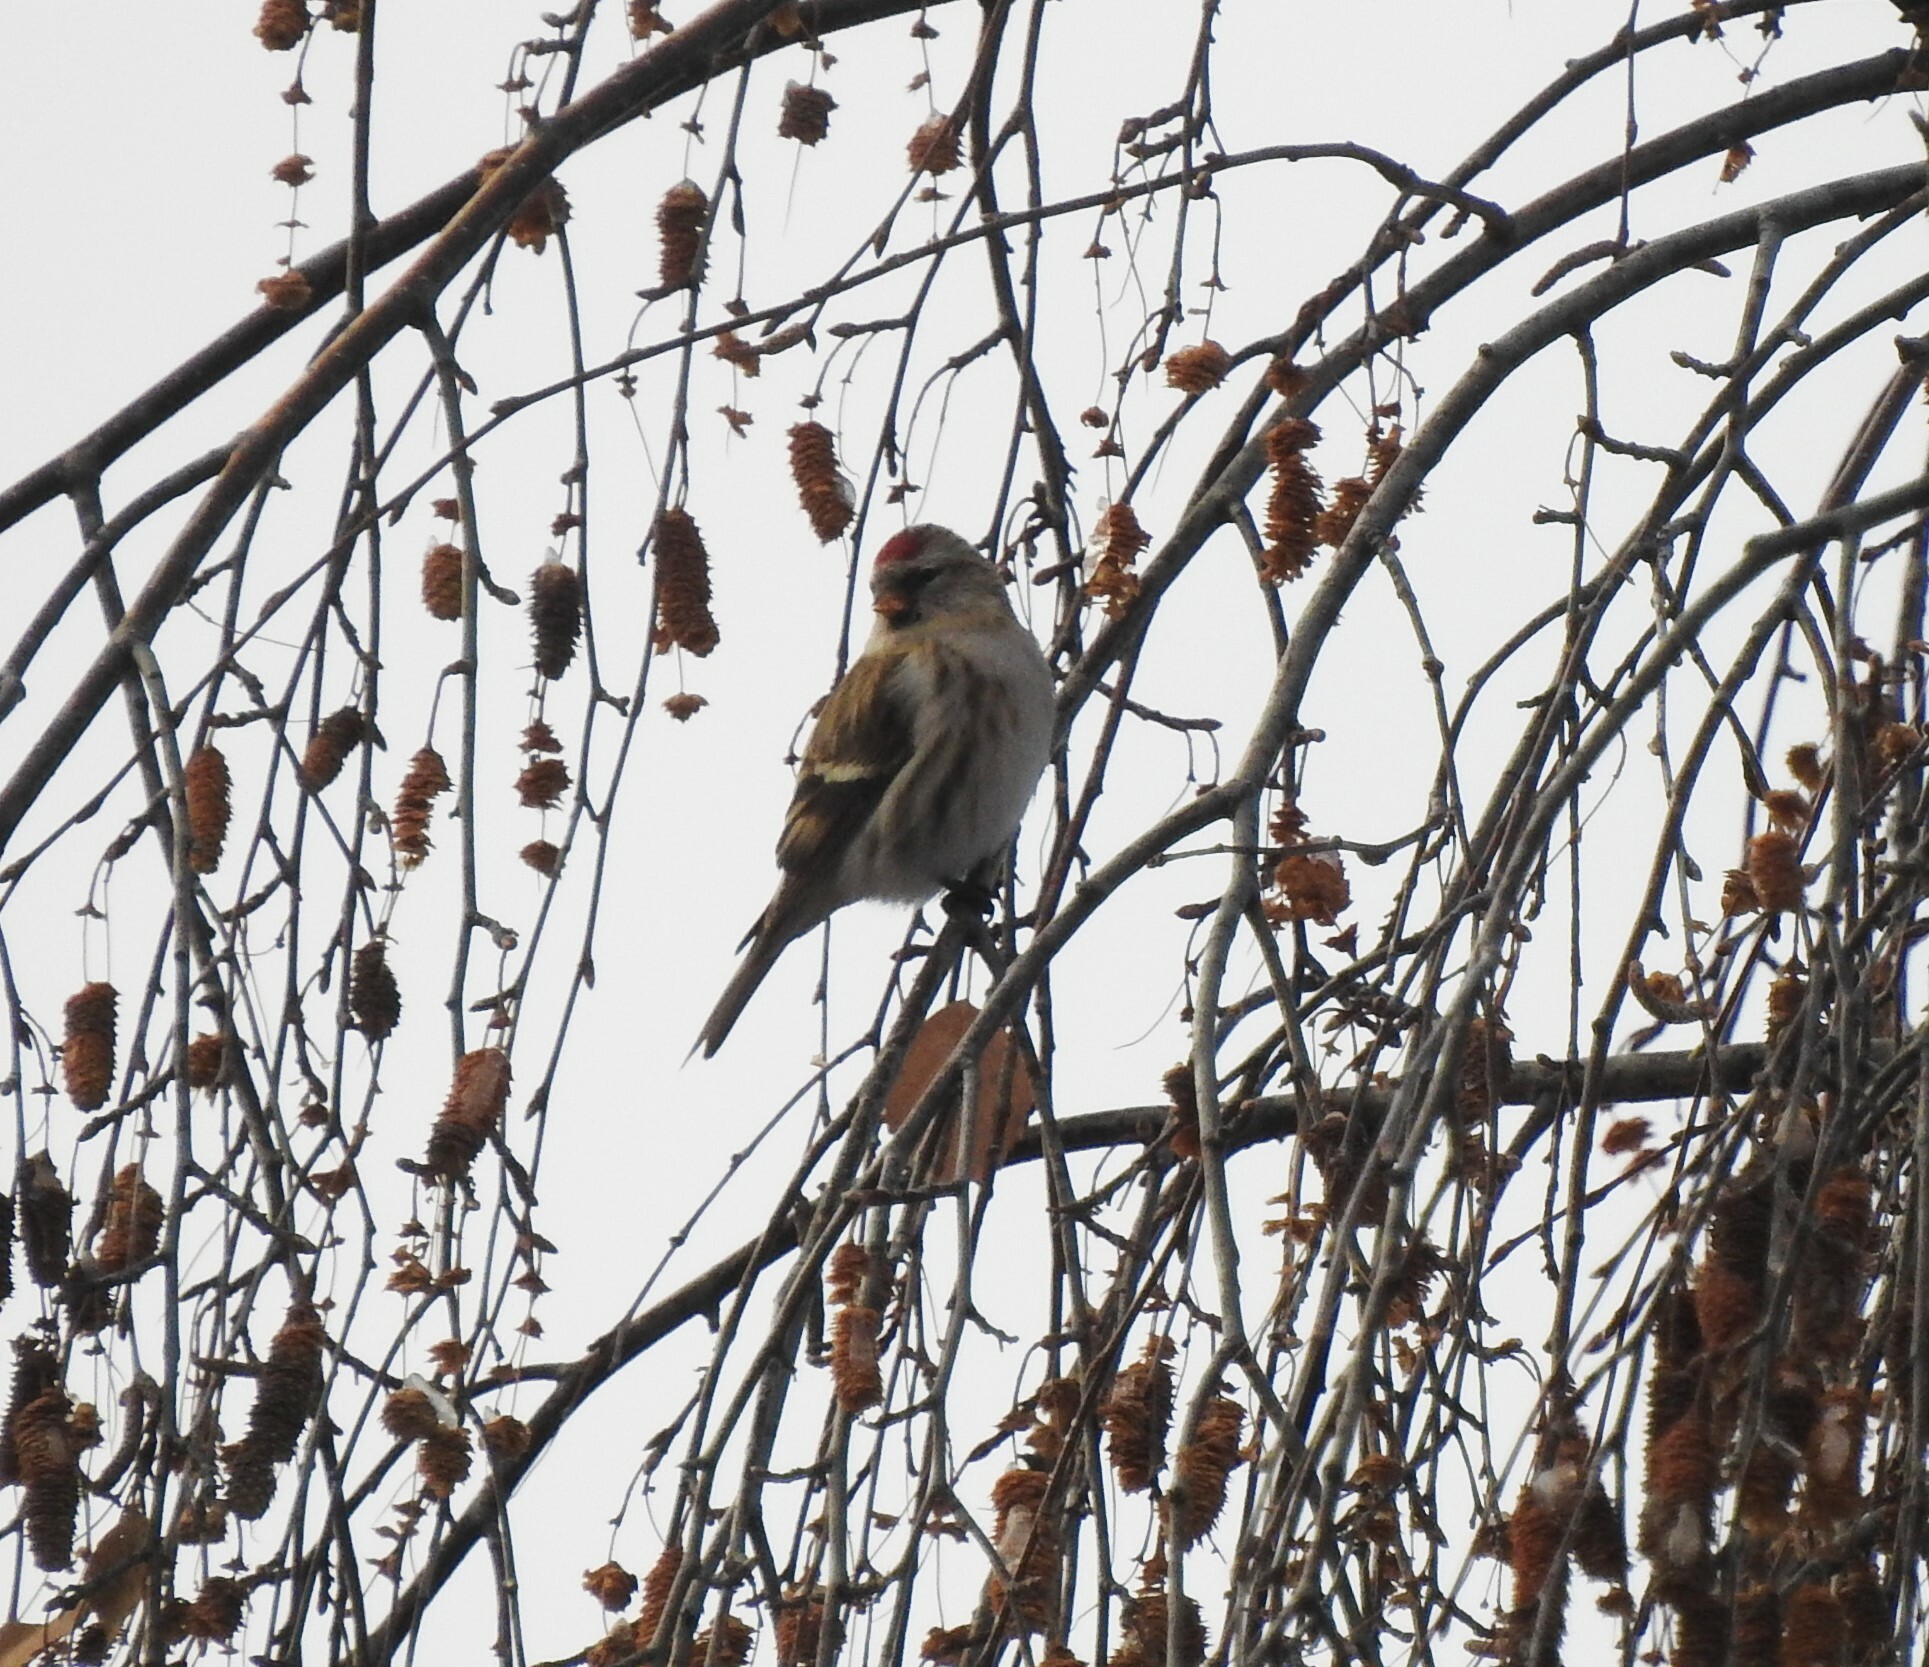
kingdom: Animalia
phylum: Chordata
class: Aves
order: Passeriformes
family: Fringillidae
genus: Acanthis
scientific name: Acanthis flammea
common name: Common redpoll
